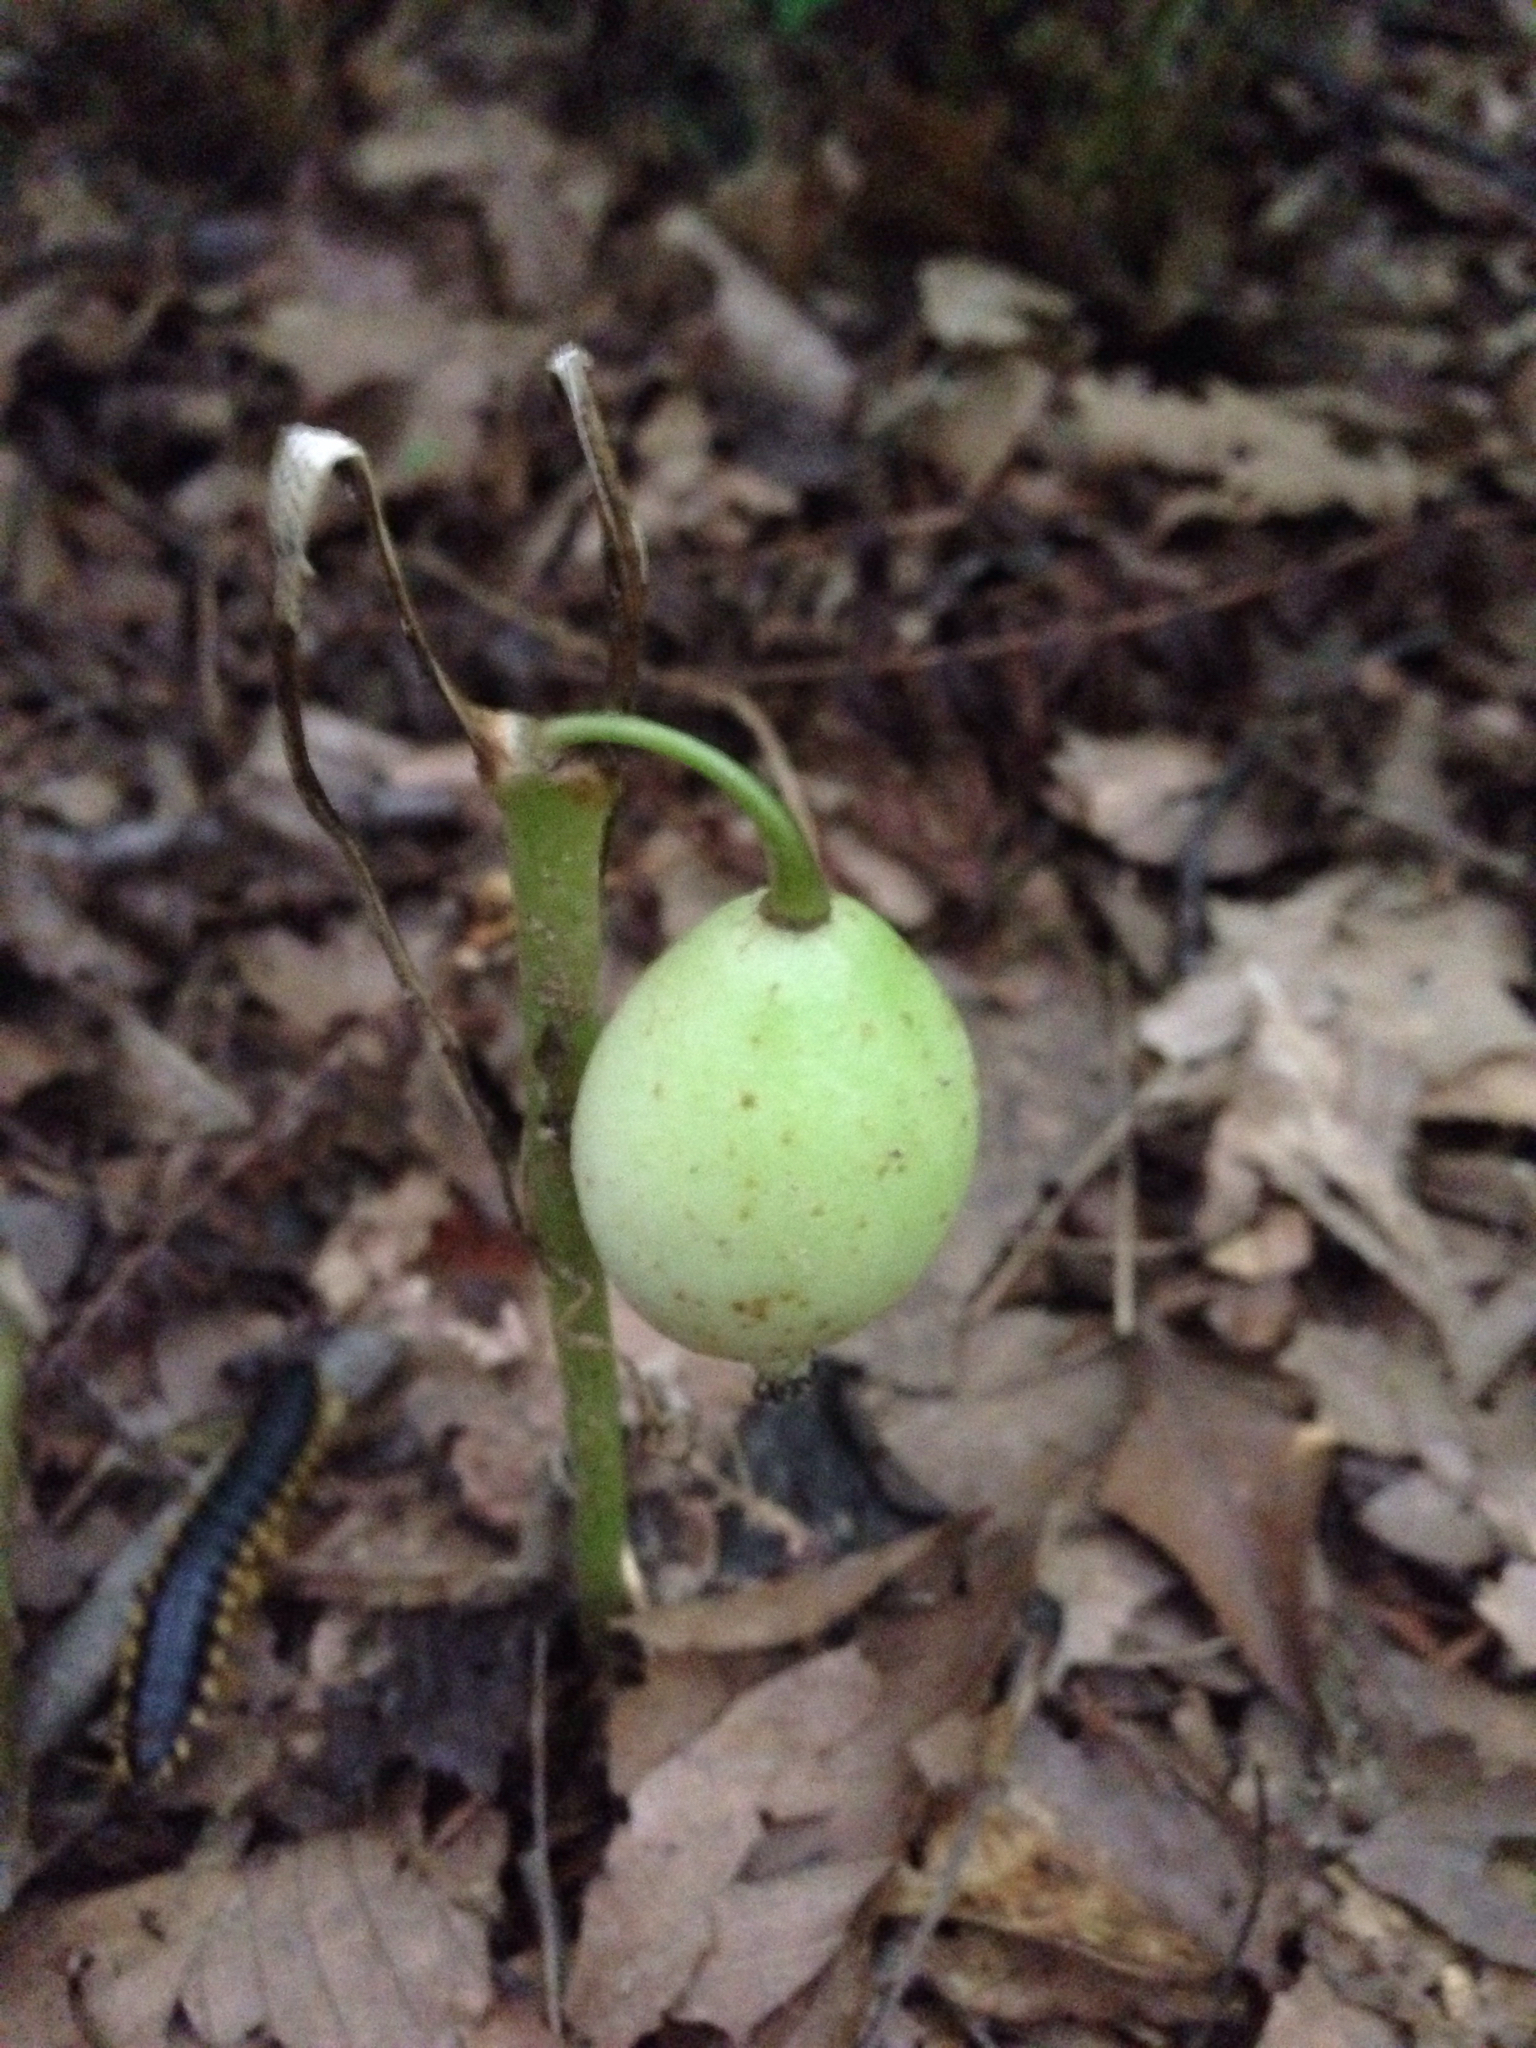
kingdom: Plantae
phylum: Tracheophyta
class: Magnoliopsida
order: Ranunculales
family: Berberidaceae
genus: Podophyllum
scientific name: Podophyllum peltatum
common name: Wild mandrake
